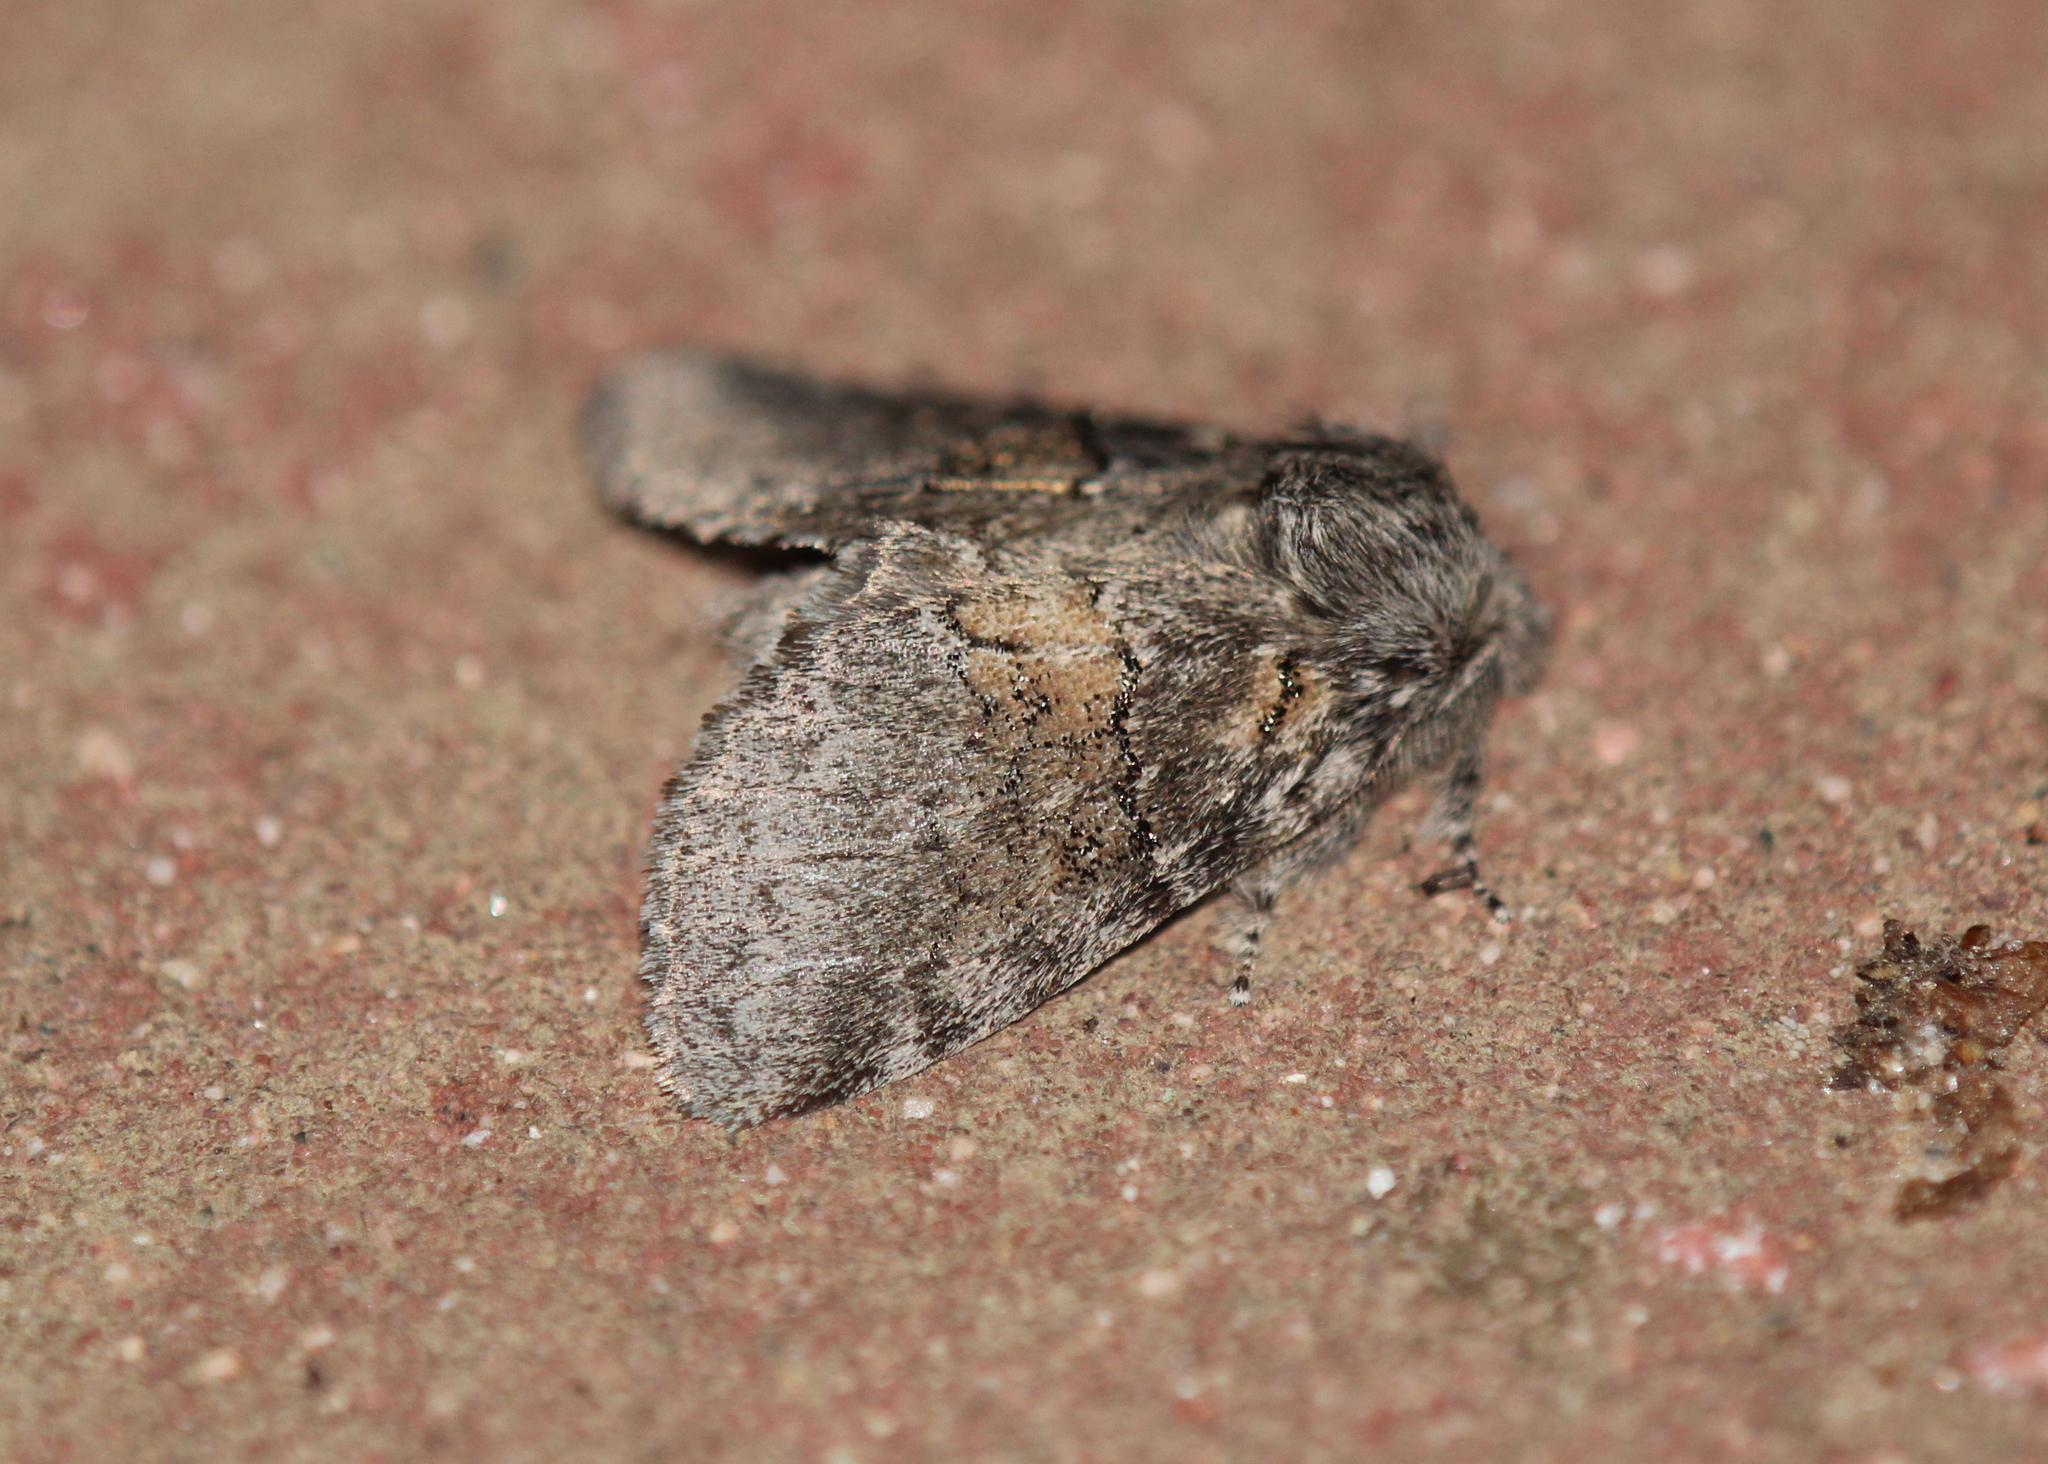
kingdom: Animalia
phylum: Arthropoda
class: Insecta
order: Lepidoptera
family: Notodontidae
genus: Gluphisia
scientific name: Gluphisia septentrionis
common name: Common gluphisia
